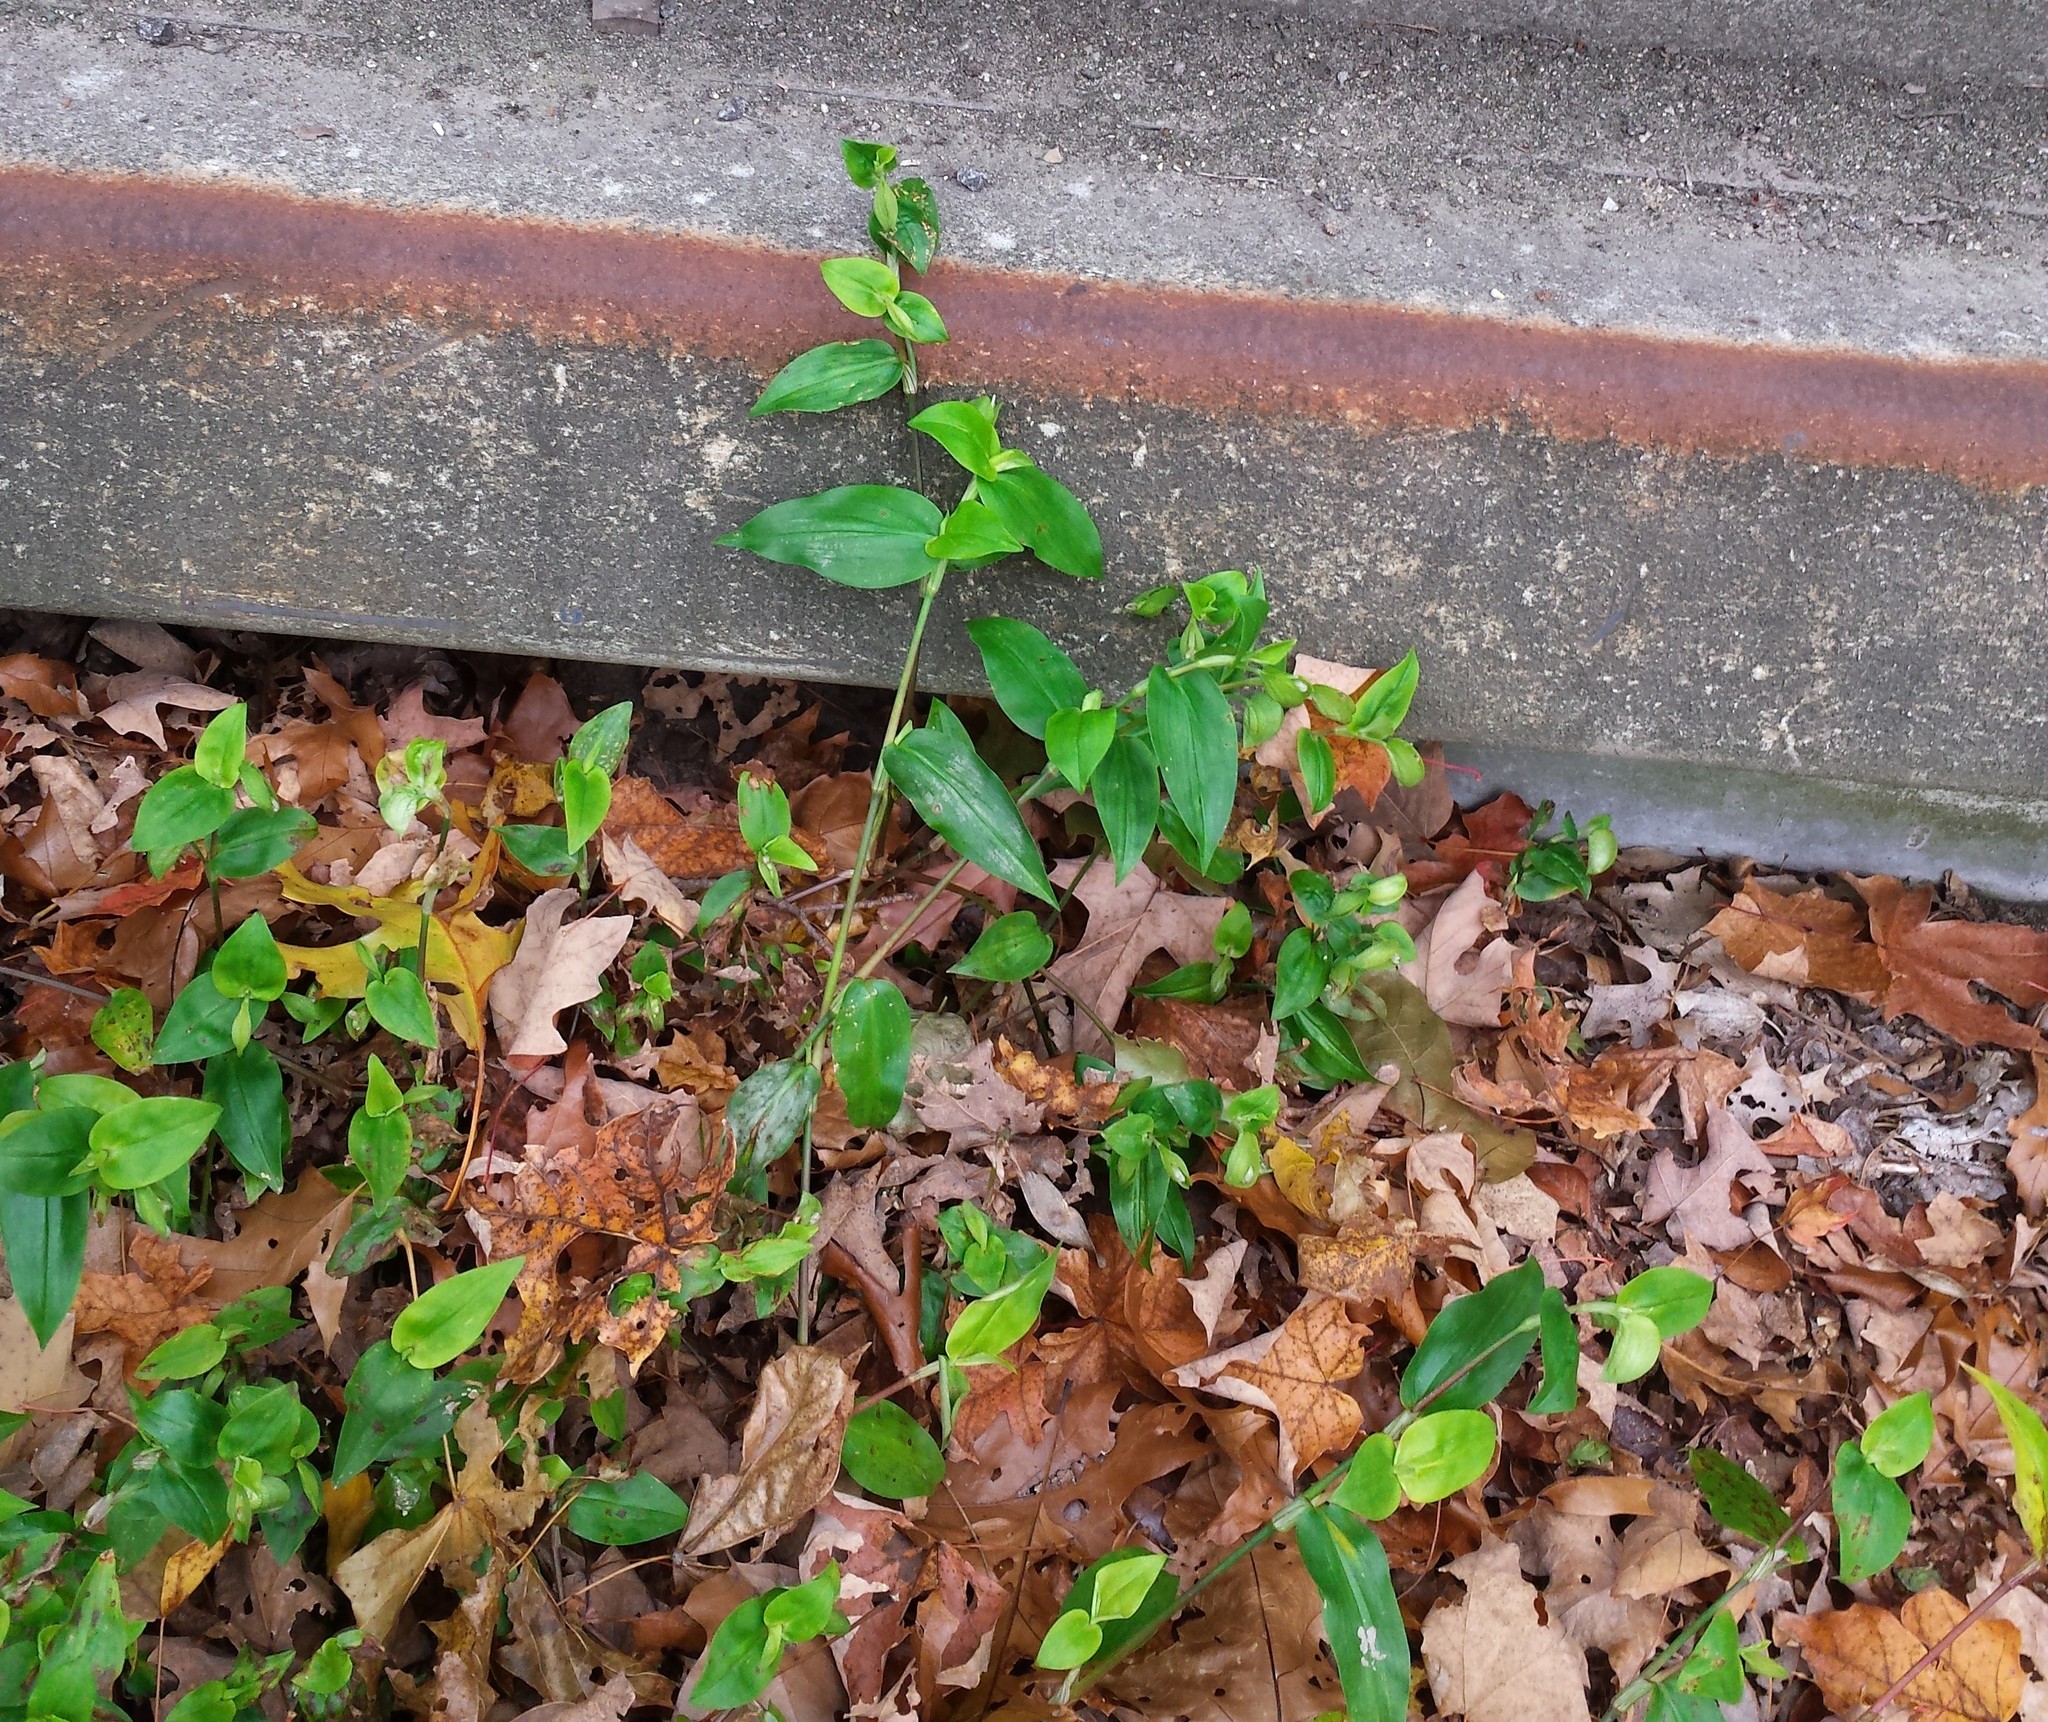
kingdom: Plantae
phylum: Tracheophyta
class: Liliopsida
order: Commelinales
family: Commelinaceae
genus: Commelina
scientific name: Commelina communis
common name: Asiatic dayflower
